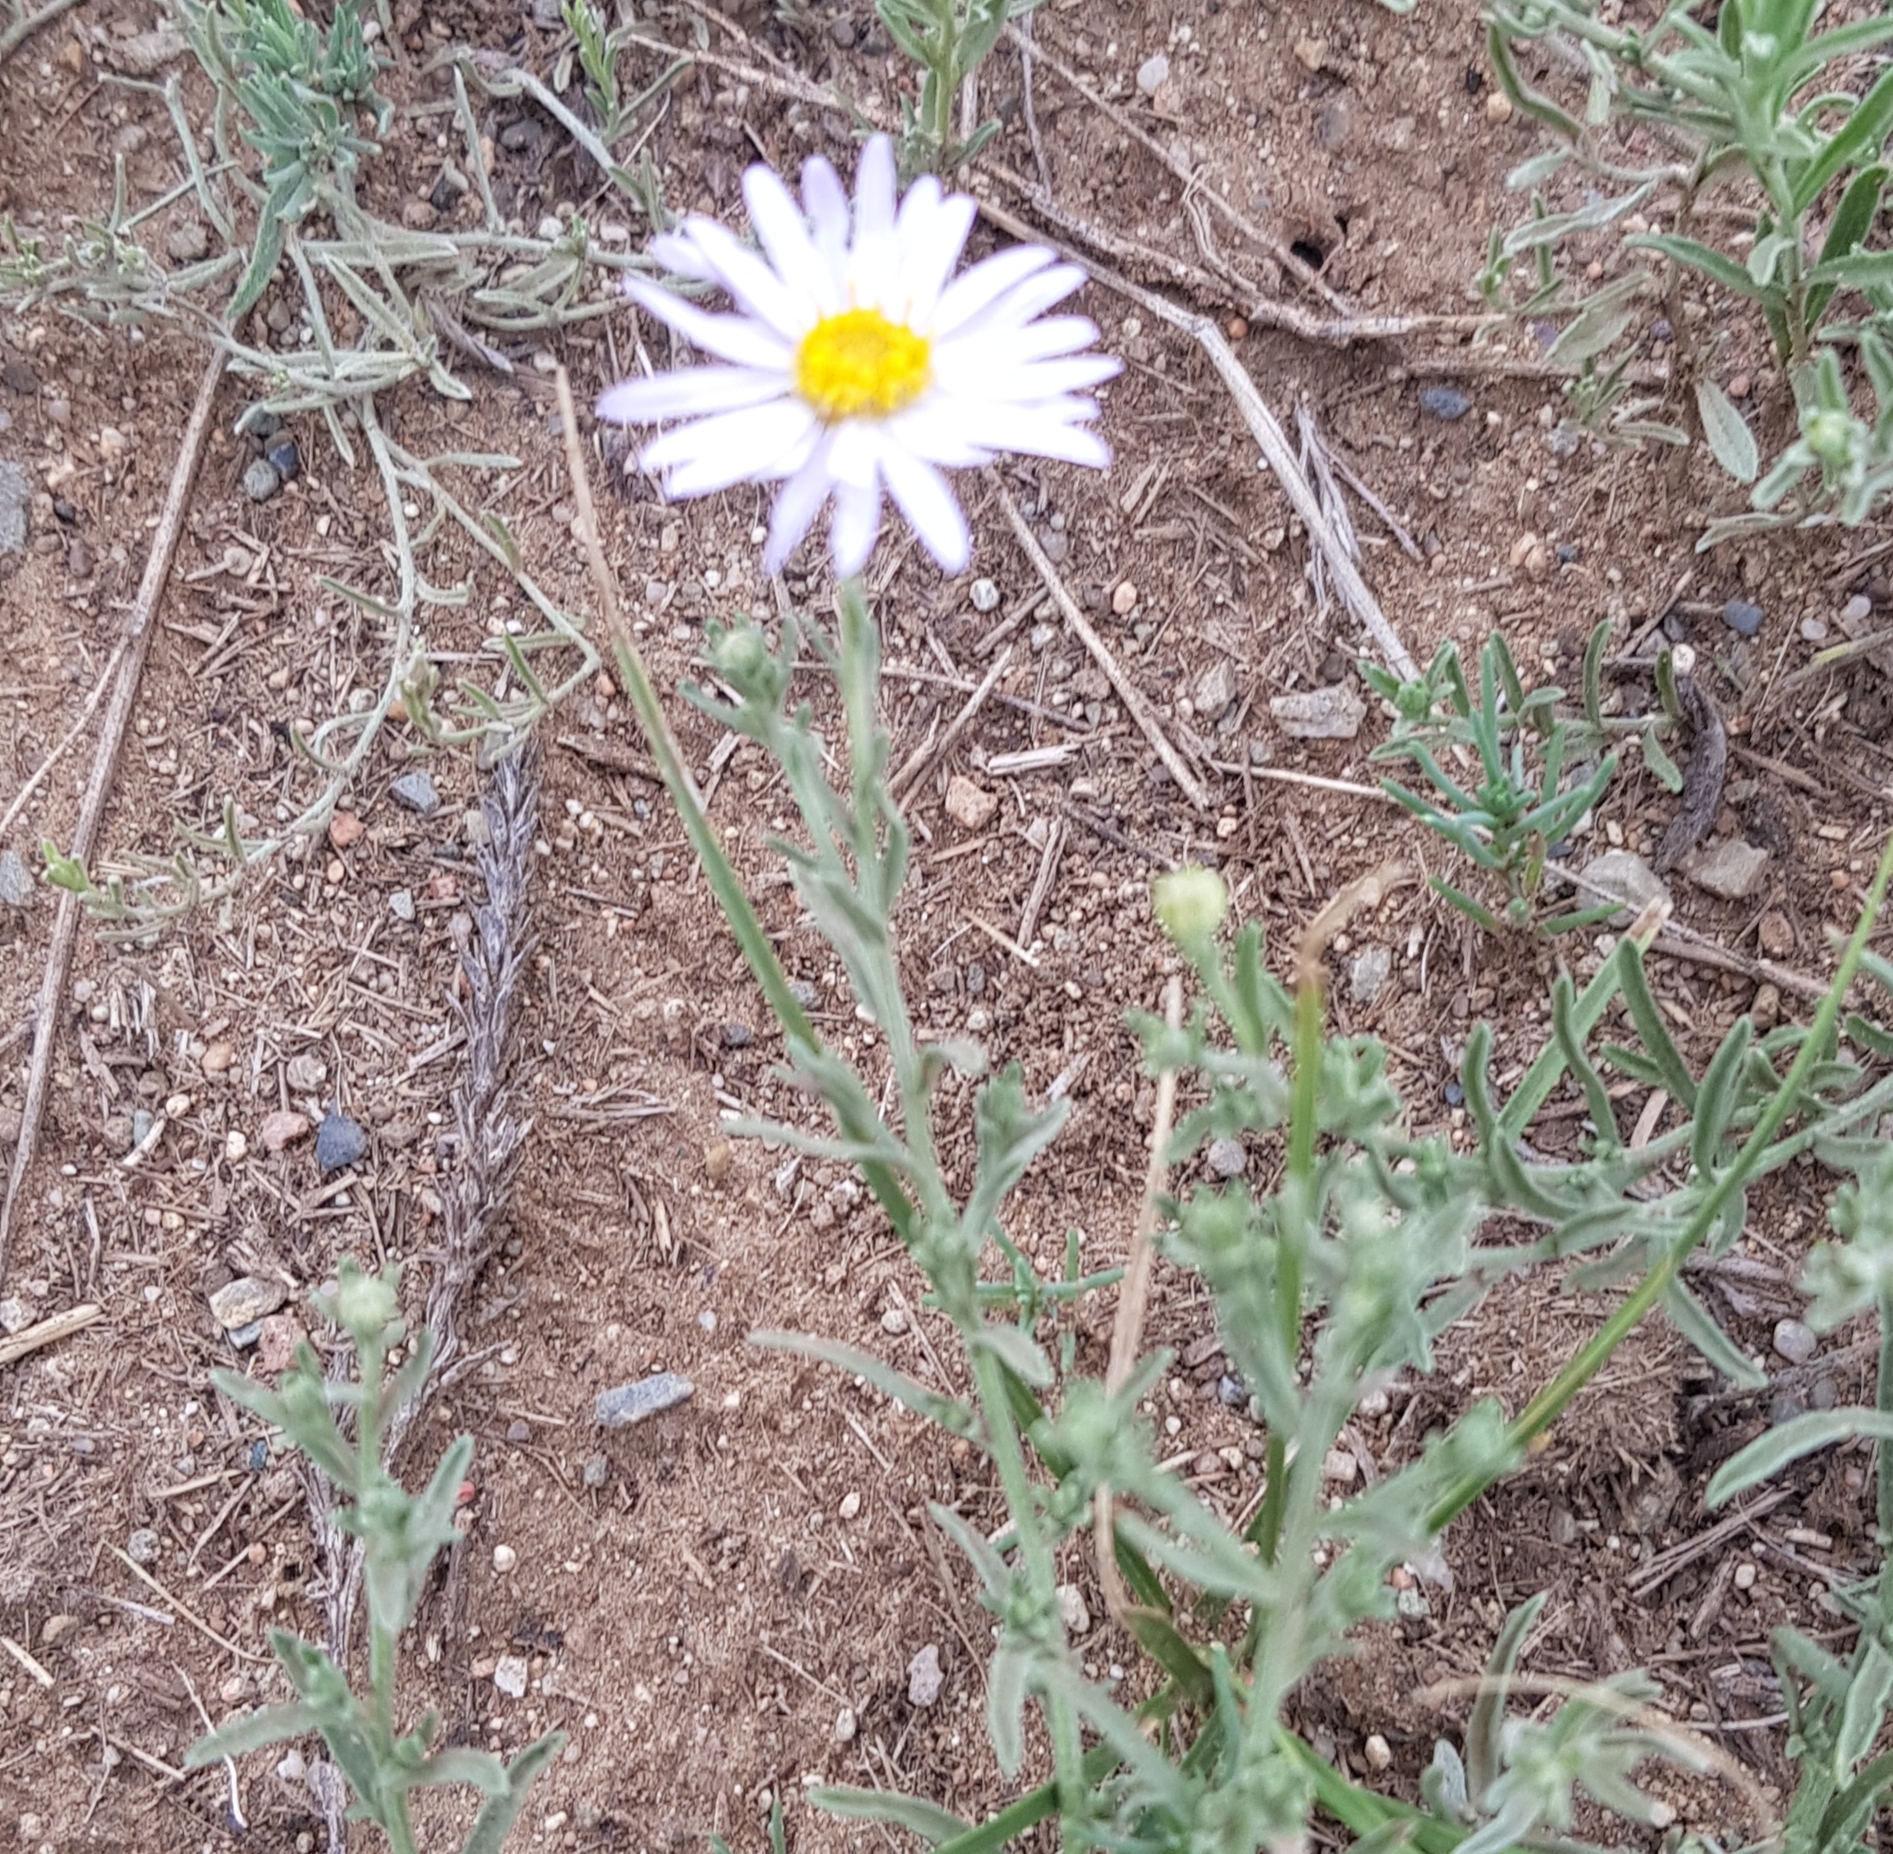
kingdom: Plantae
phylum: Tracheophyta
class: Magnoliopsida
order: Asterales
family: Asteraceae
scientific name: Asteraceae
